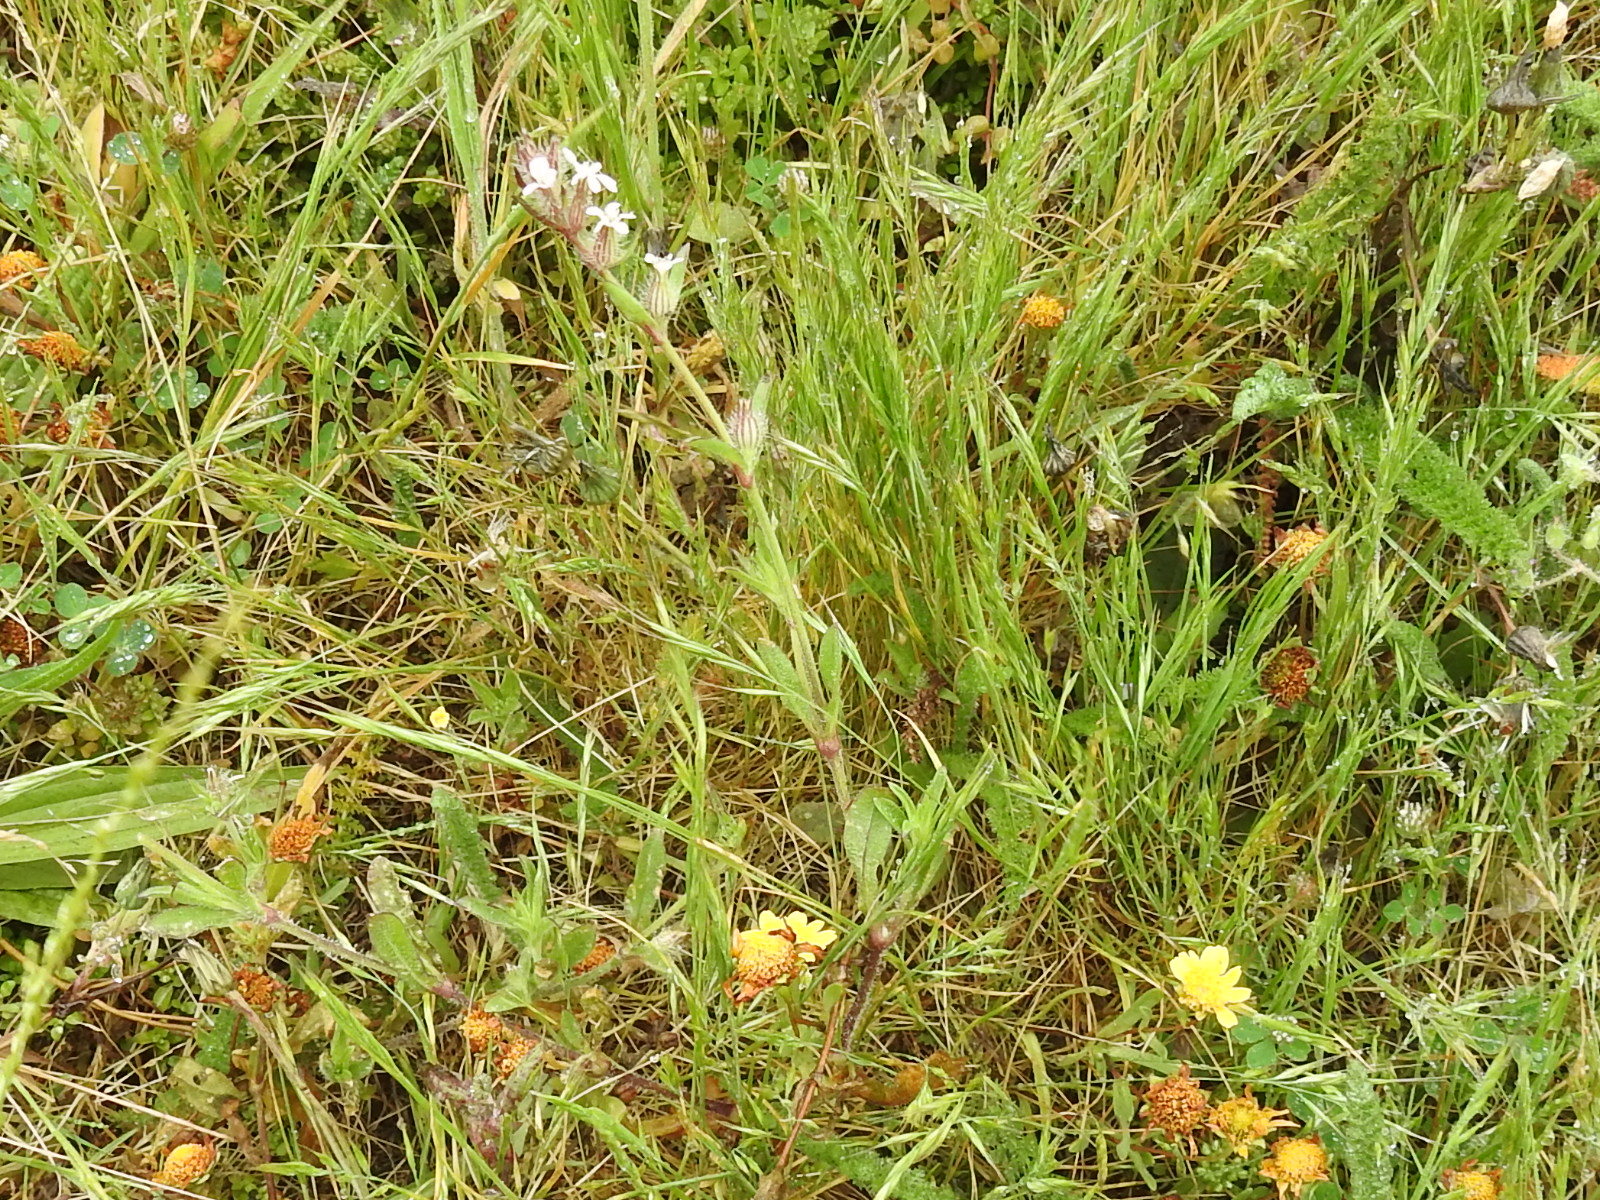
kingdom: Plantae
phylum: Tracheophyta
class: Magnoliopsida
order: Caryophyllales
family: Caryophyllaceae
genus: Silene
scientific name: Silene gallica
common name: Small-flowered catchfly
